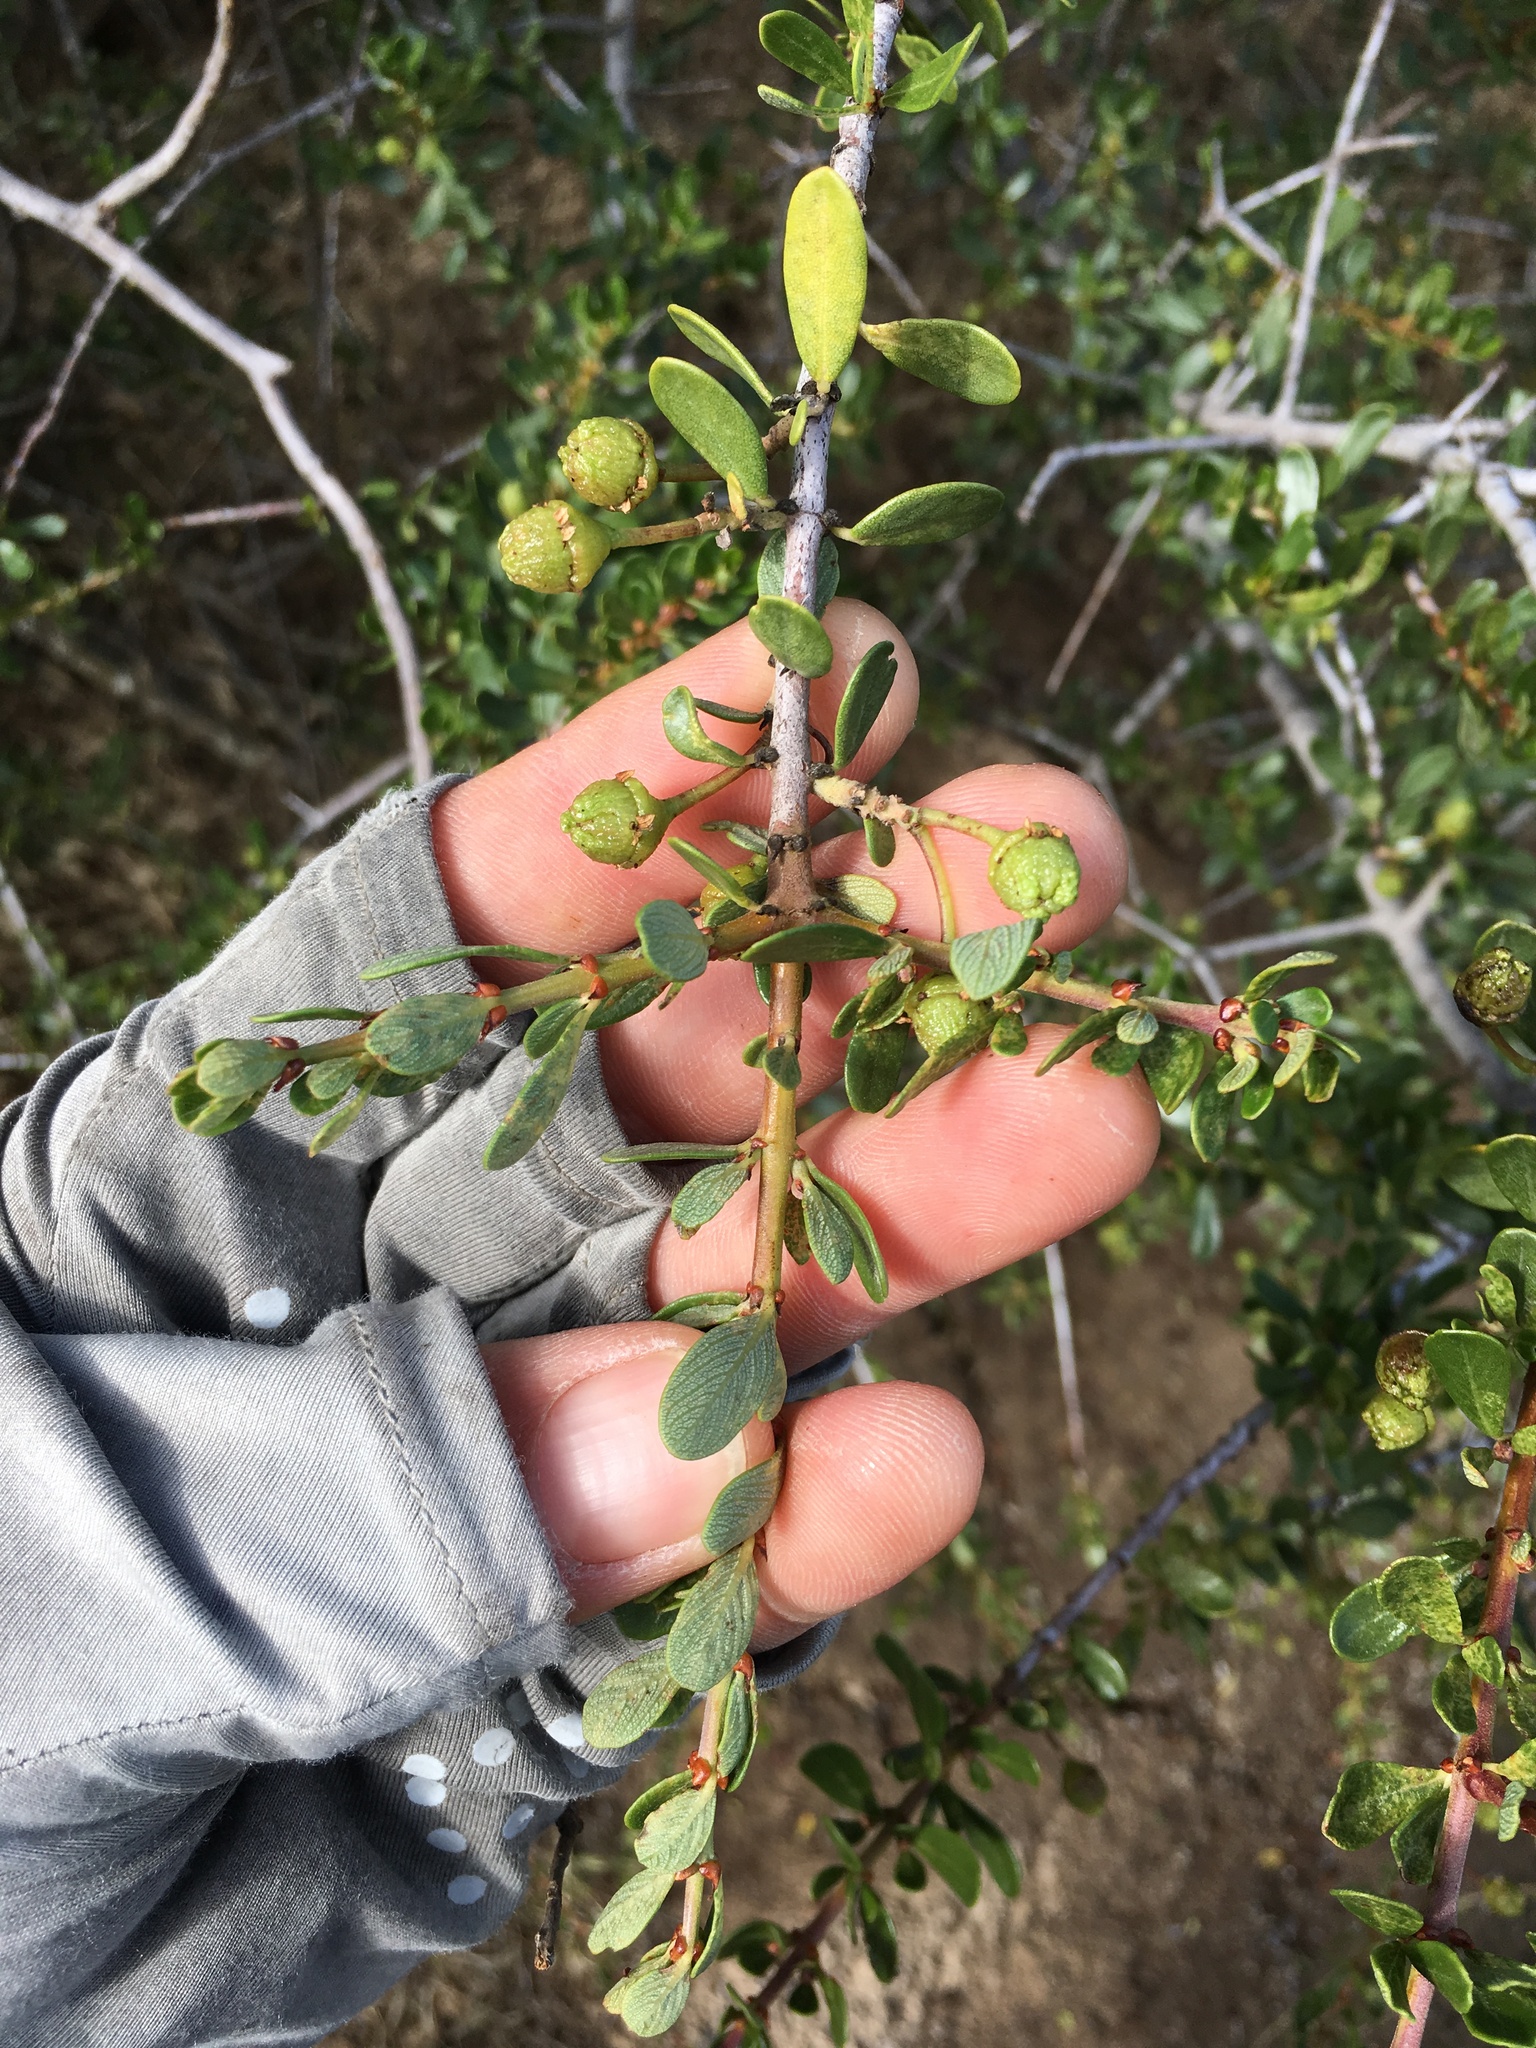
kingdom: Plantae
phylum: Tracheophyta
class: Magnoliopsida
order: Rosales
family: Rhamnaceae
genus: Ceanothus
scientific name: Ceanothus cuneatus
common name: Cuneate ceanothus
